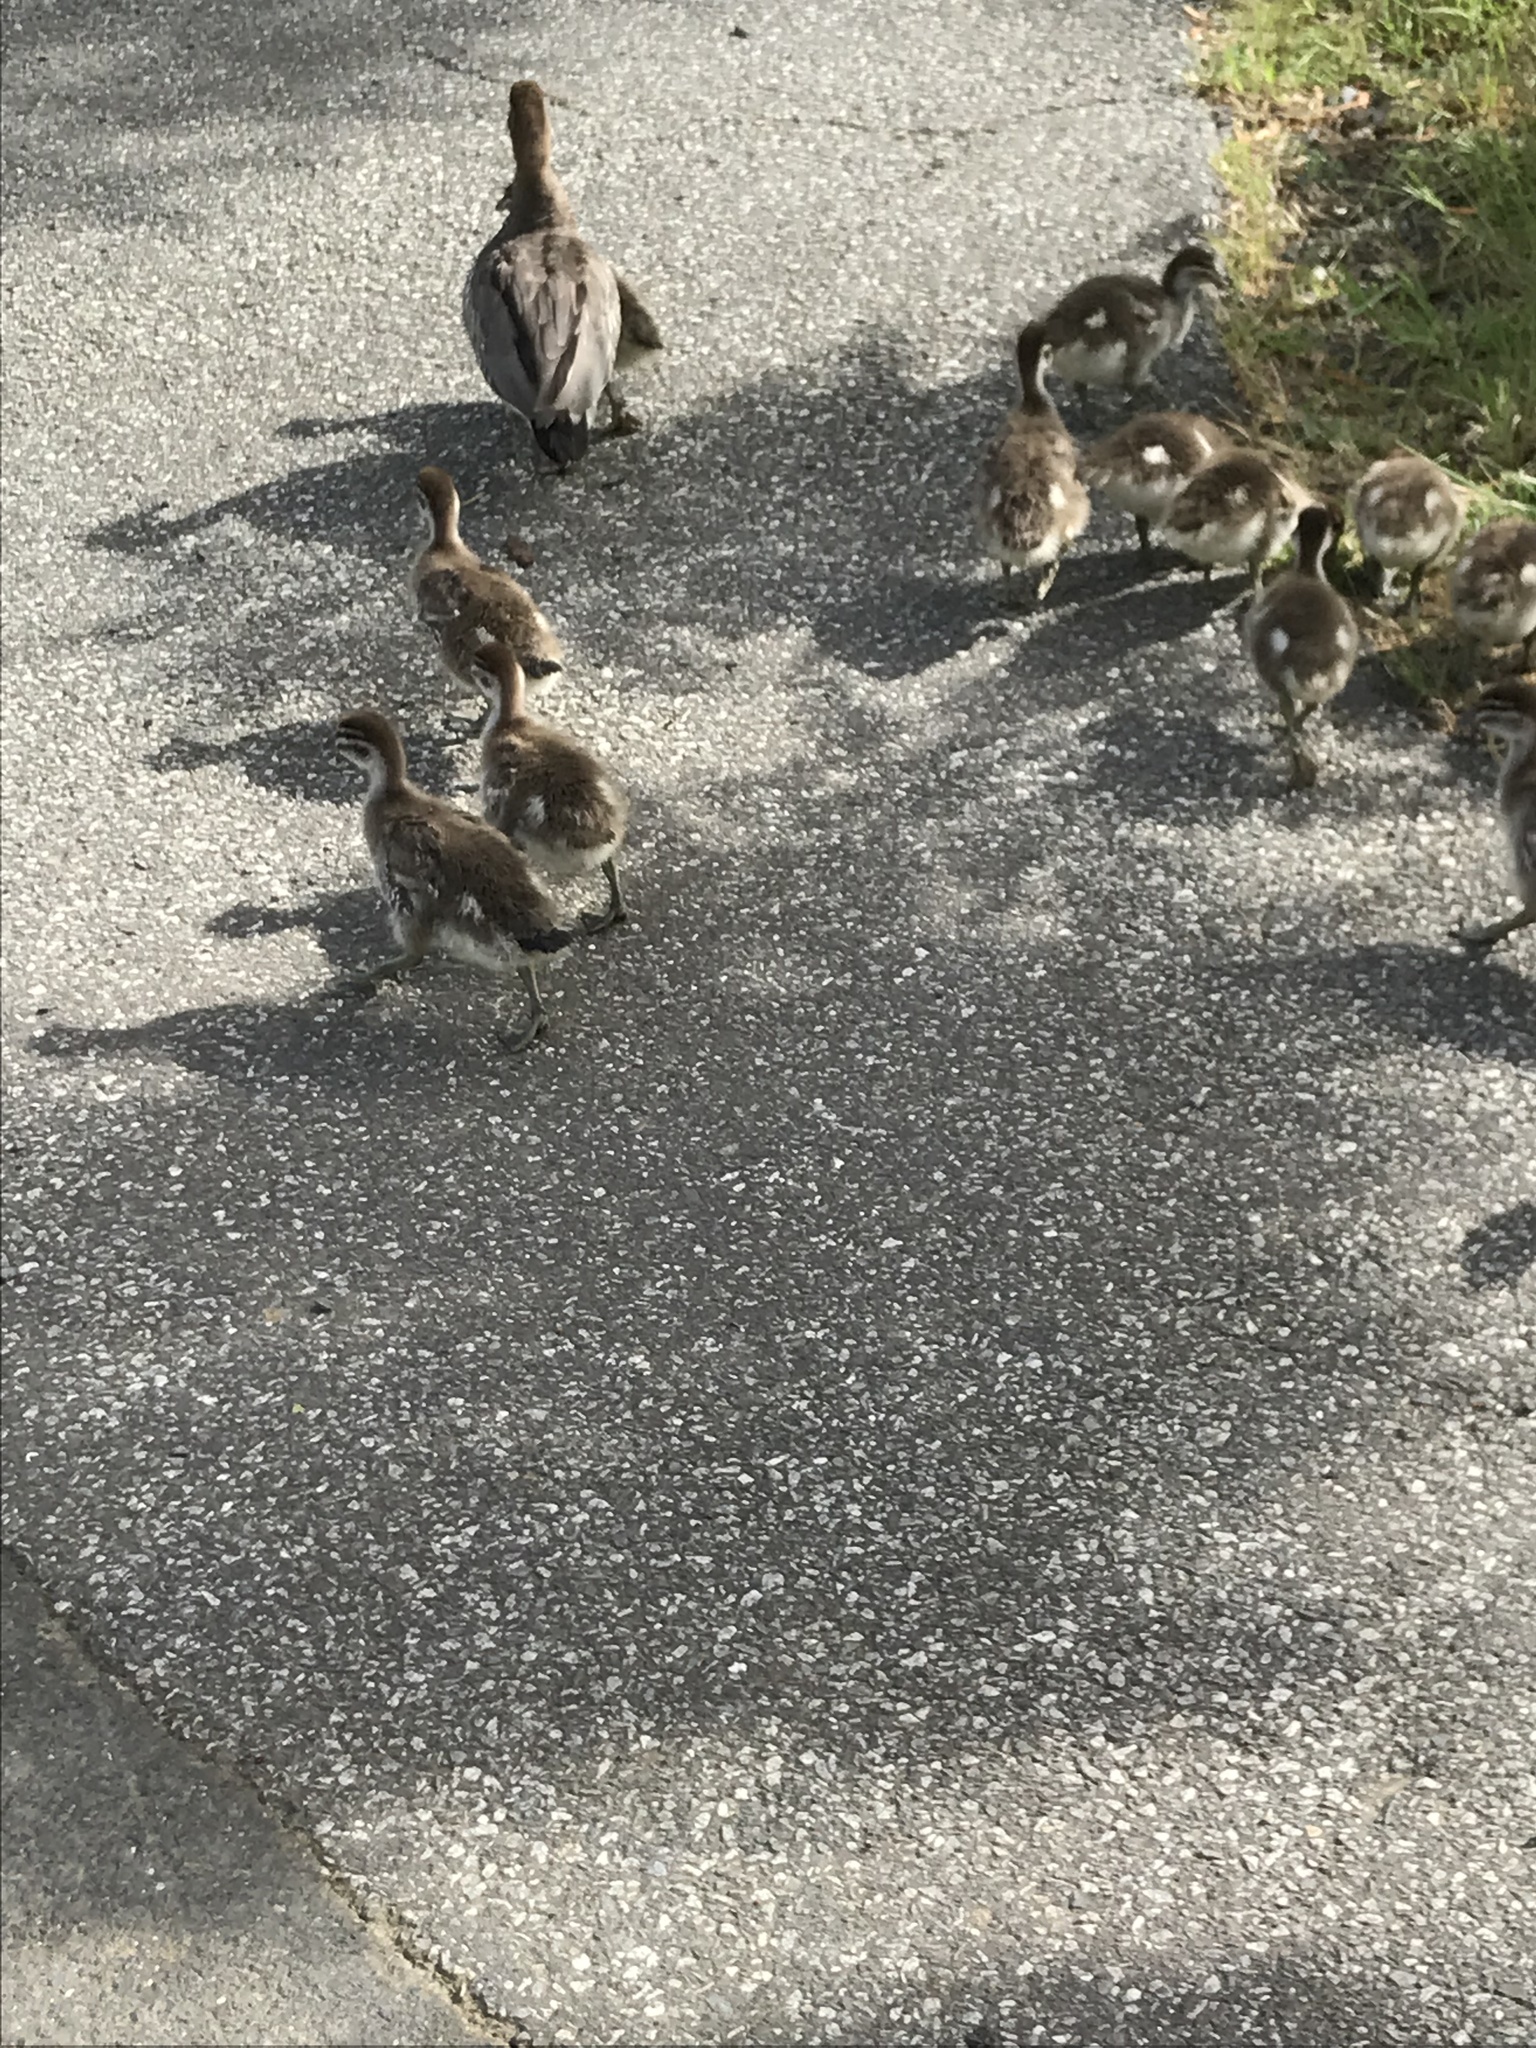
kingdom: Animalia
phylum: Chordata
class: Aves
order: Anseriformes
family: Anatidae
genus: Chenonetta
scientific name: Chenonetta jubata
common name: Maned duck
